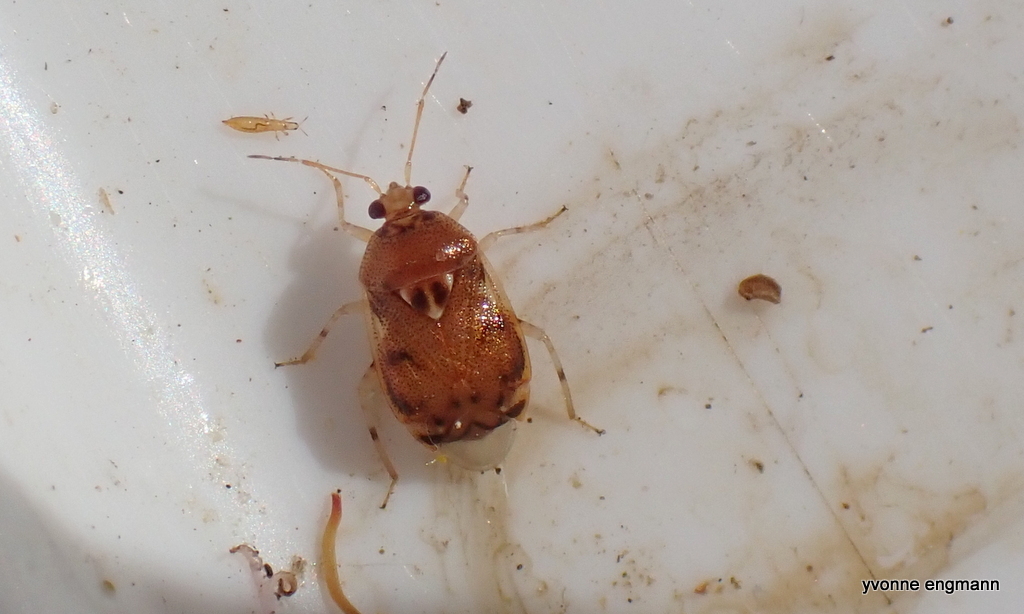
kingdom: Animalia
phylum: Arthropoda
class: Insecta
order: Hemiptera
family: Miridae
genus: Deraeocoris
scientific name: Deraeocoris lutescens
